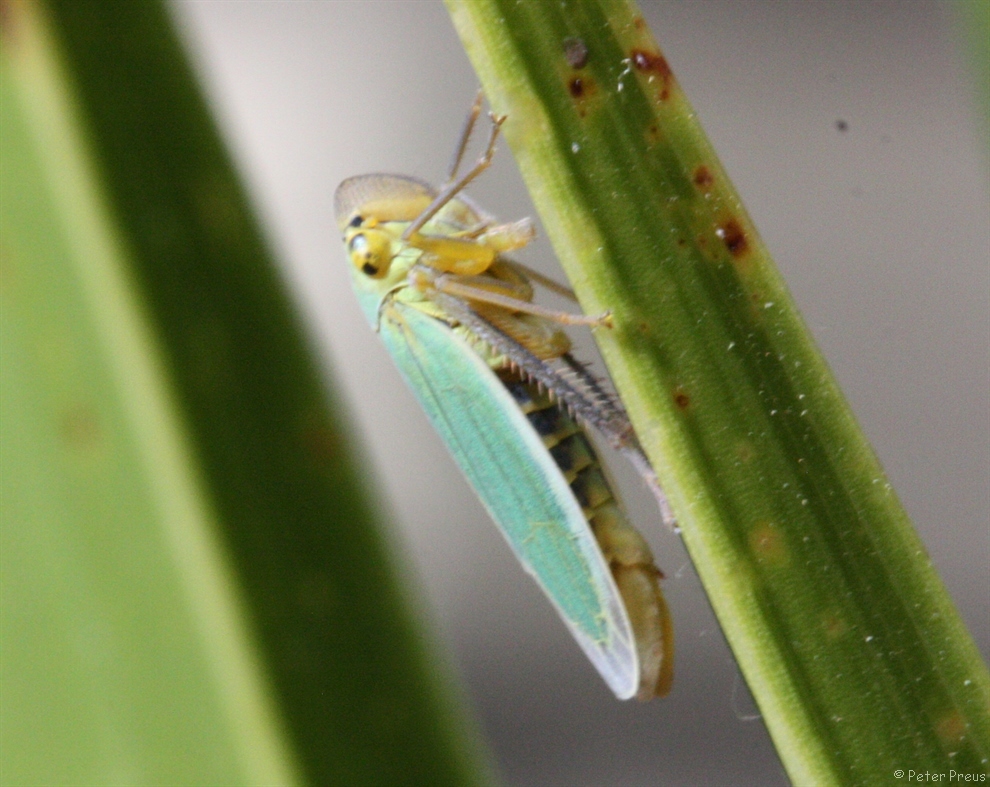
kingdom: Animalia
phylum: Arthropoda
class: Insecta
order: Hemiptera
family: Cicadellidae
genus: Cicadella
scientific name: Cicadella viridis
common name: Leafhopper
